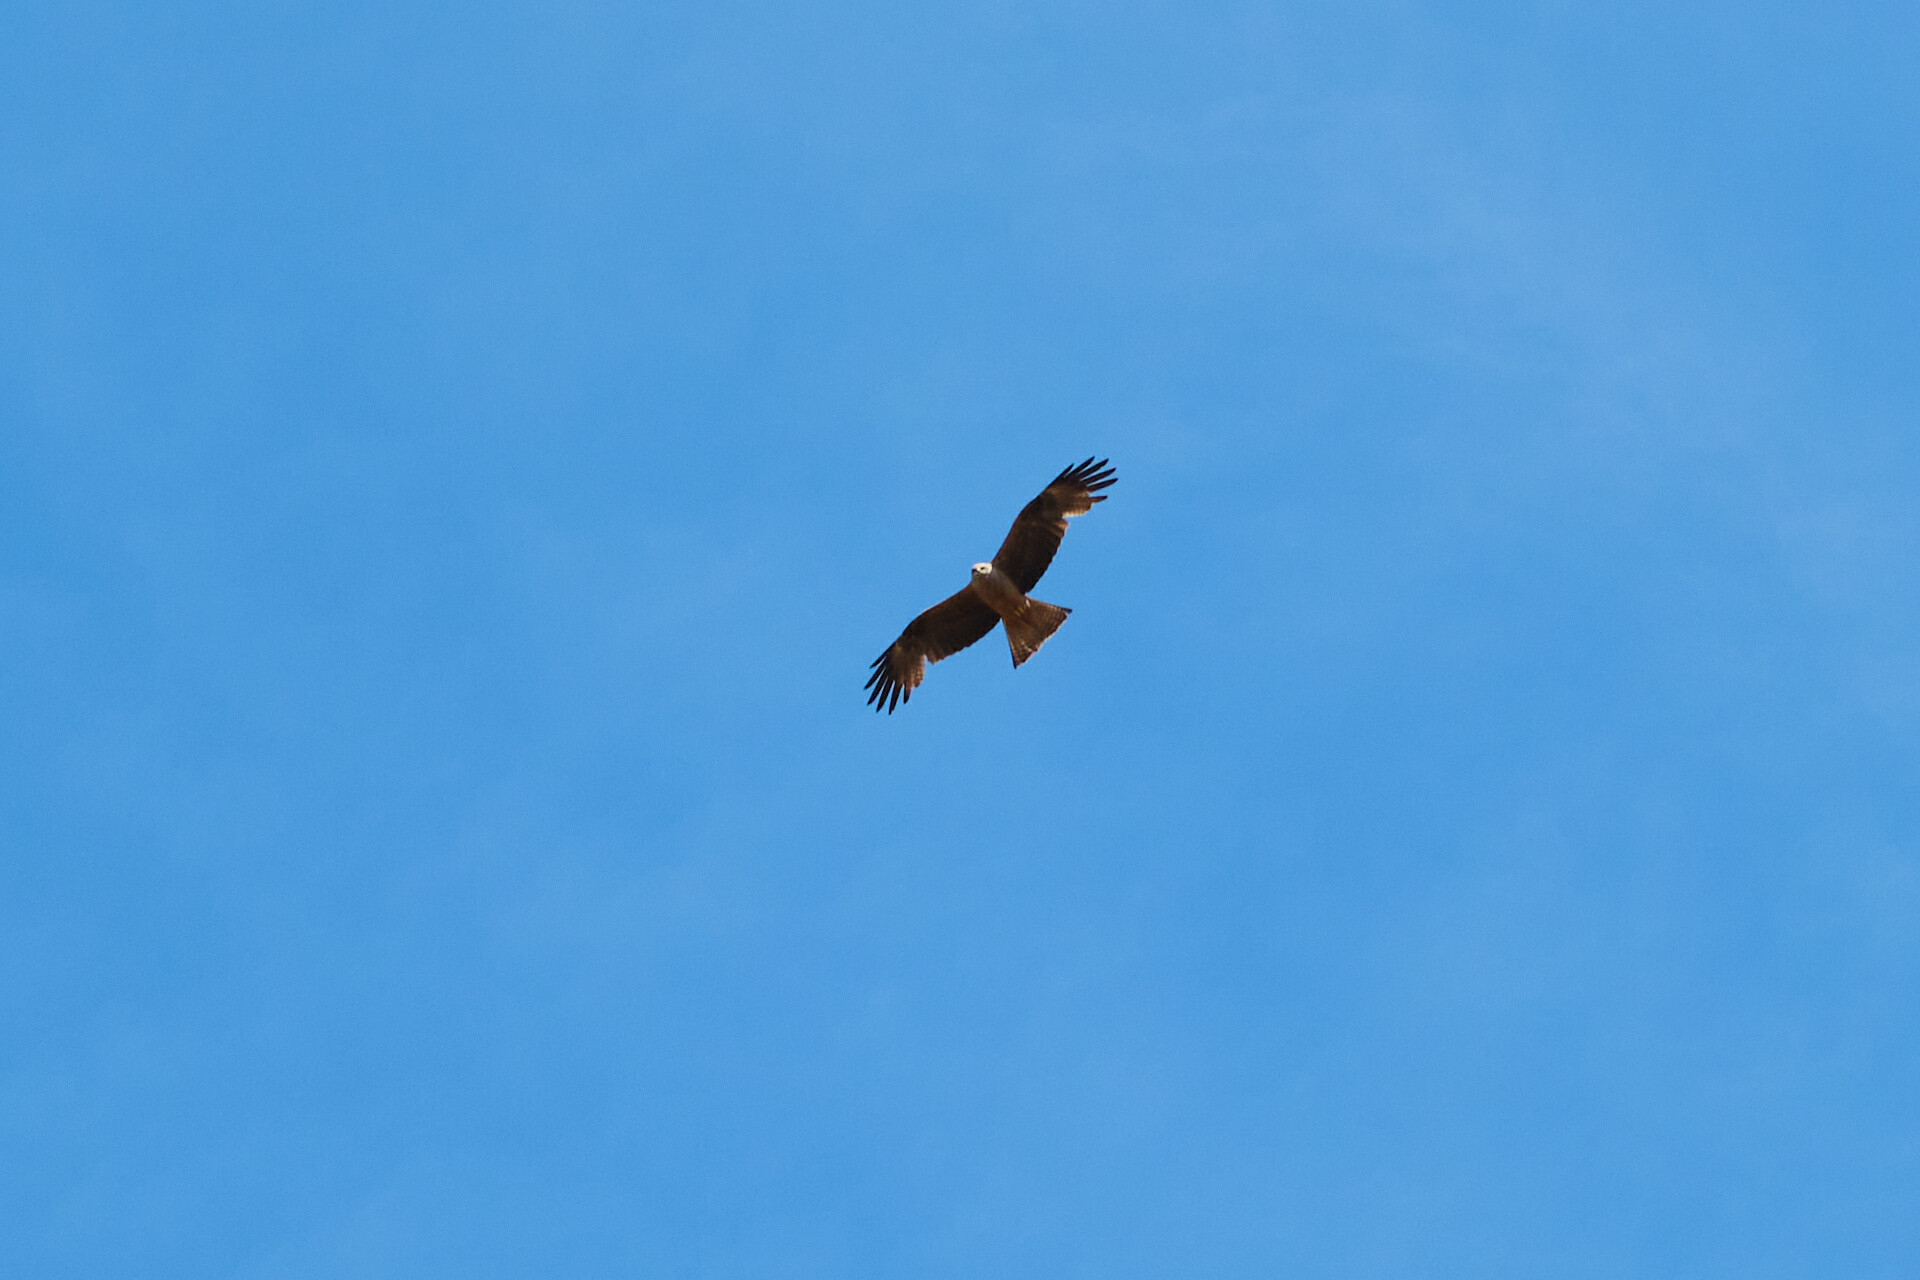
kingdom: Animalia
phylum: Chordata
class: Aves
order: Accipitriformes
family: Accipitridae
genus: Milvus
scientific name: Milvus migrans
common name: Black kite
